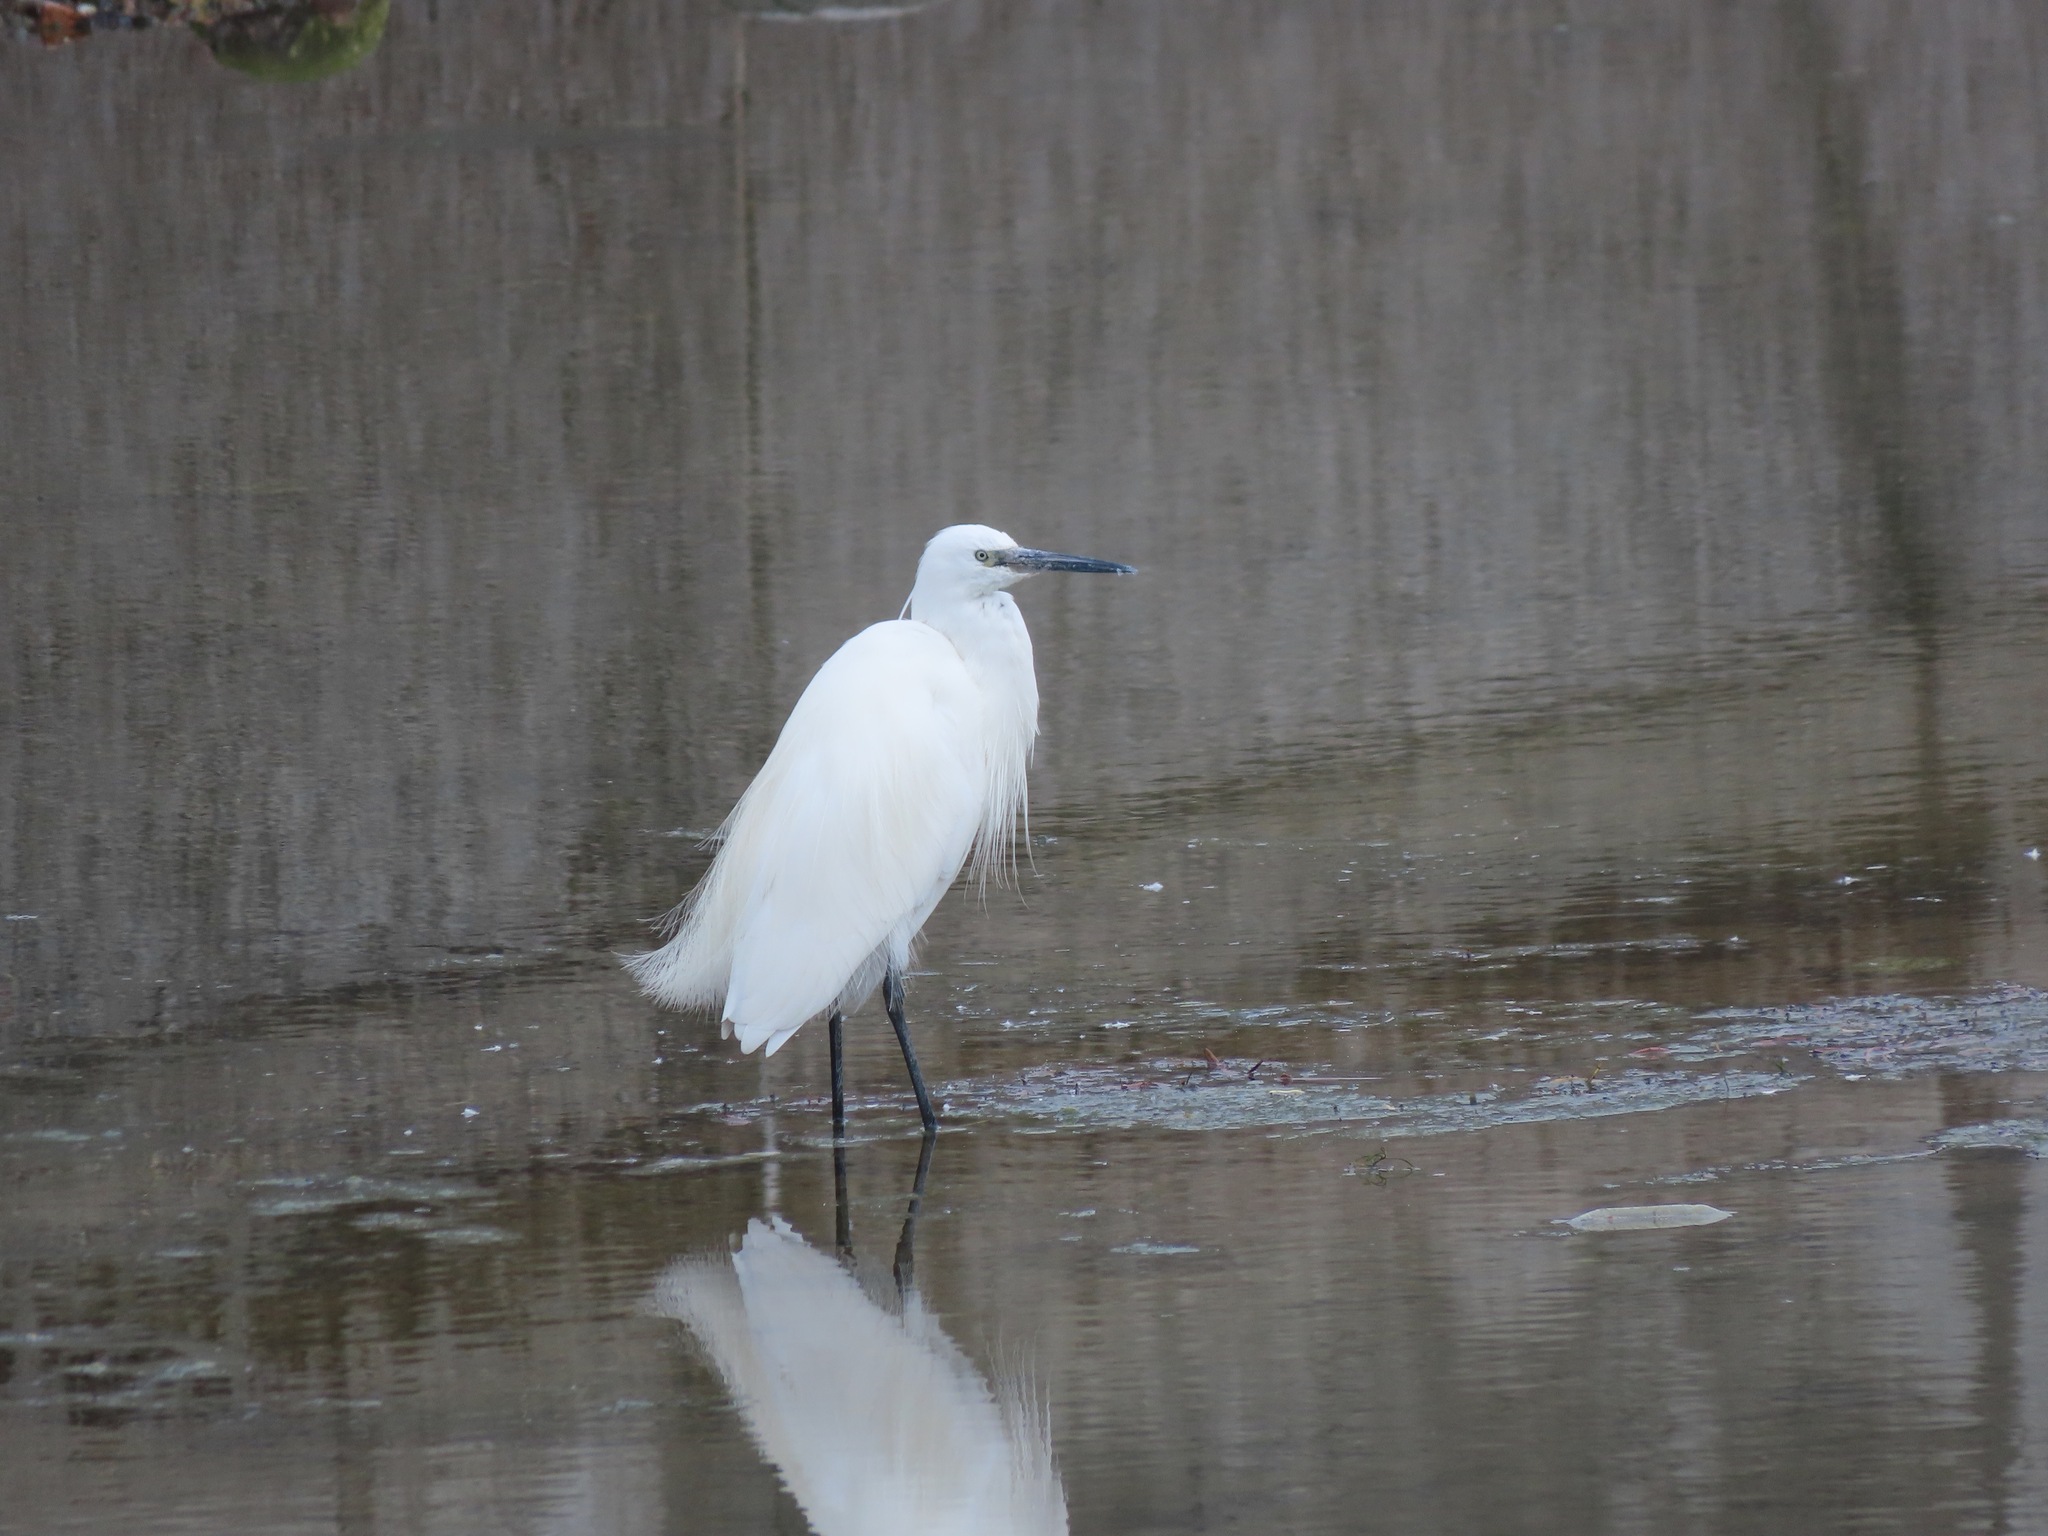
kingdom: Animalia
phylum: Chordata
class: Aves
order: Pelecaniformes
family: Ardeidae
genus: Egretta
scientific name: Egretta garzetta
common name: Little egret
